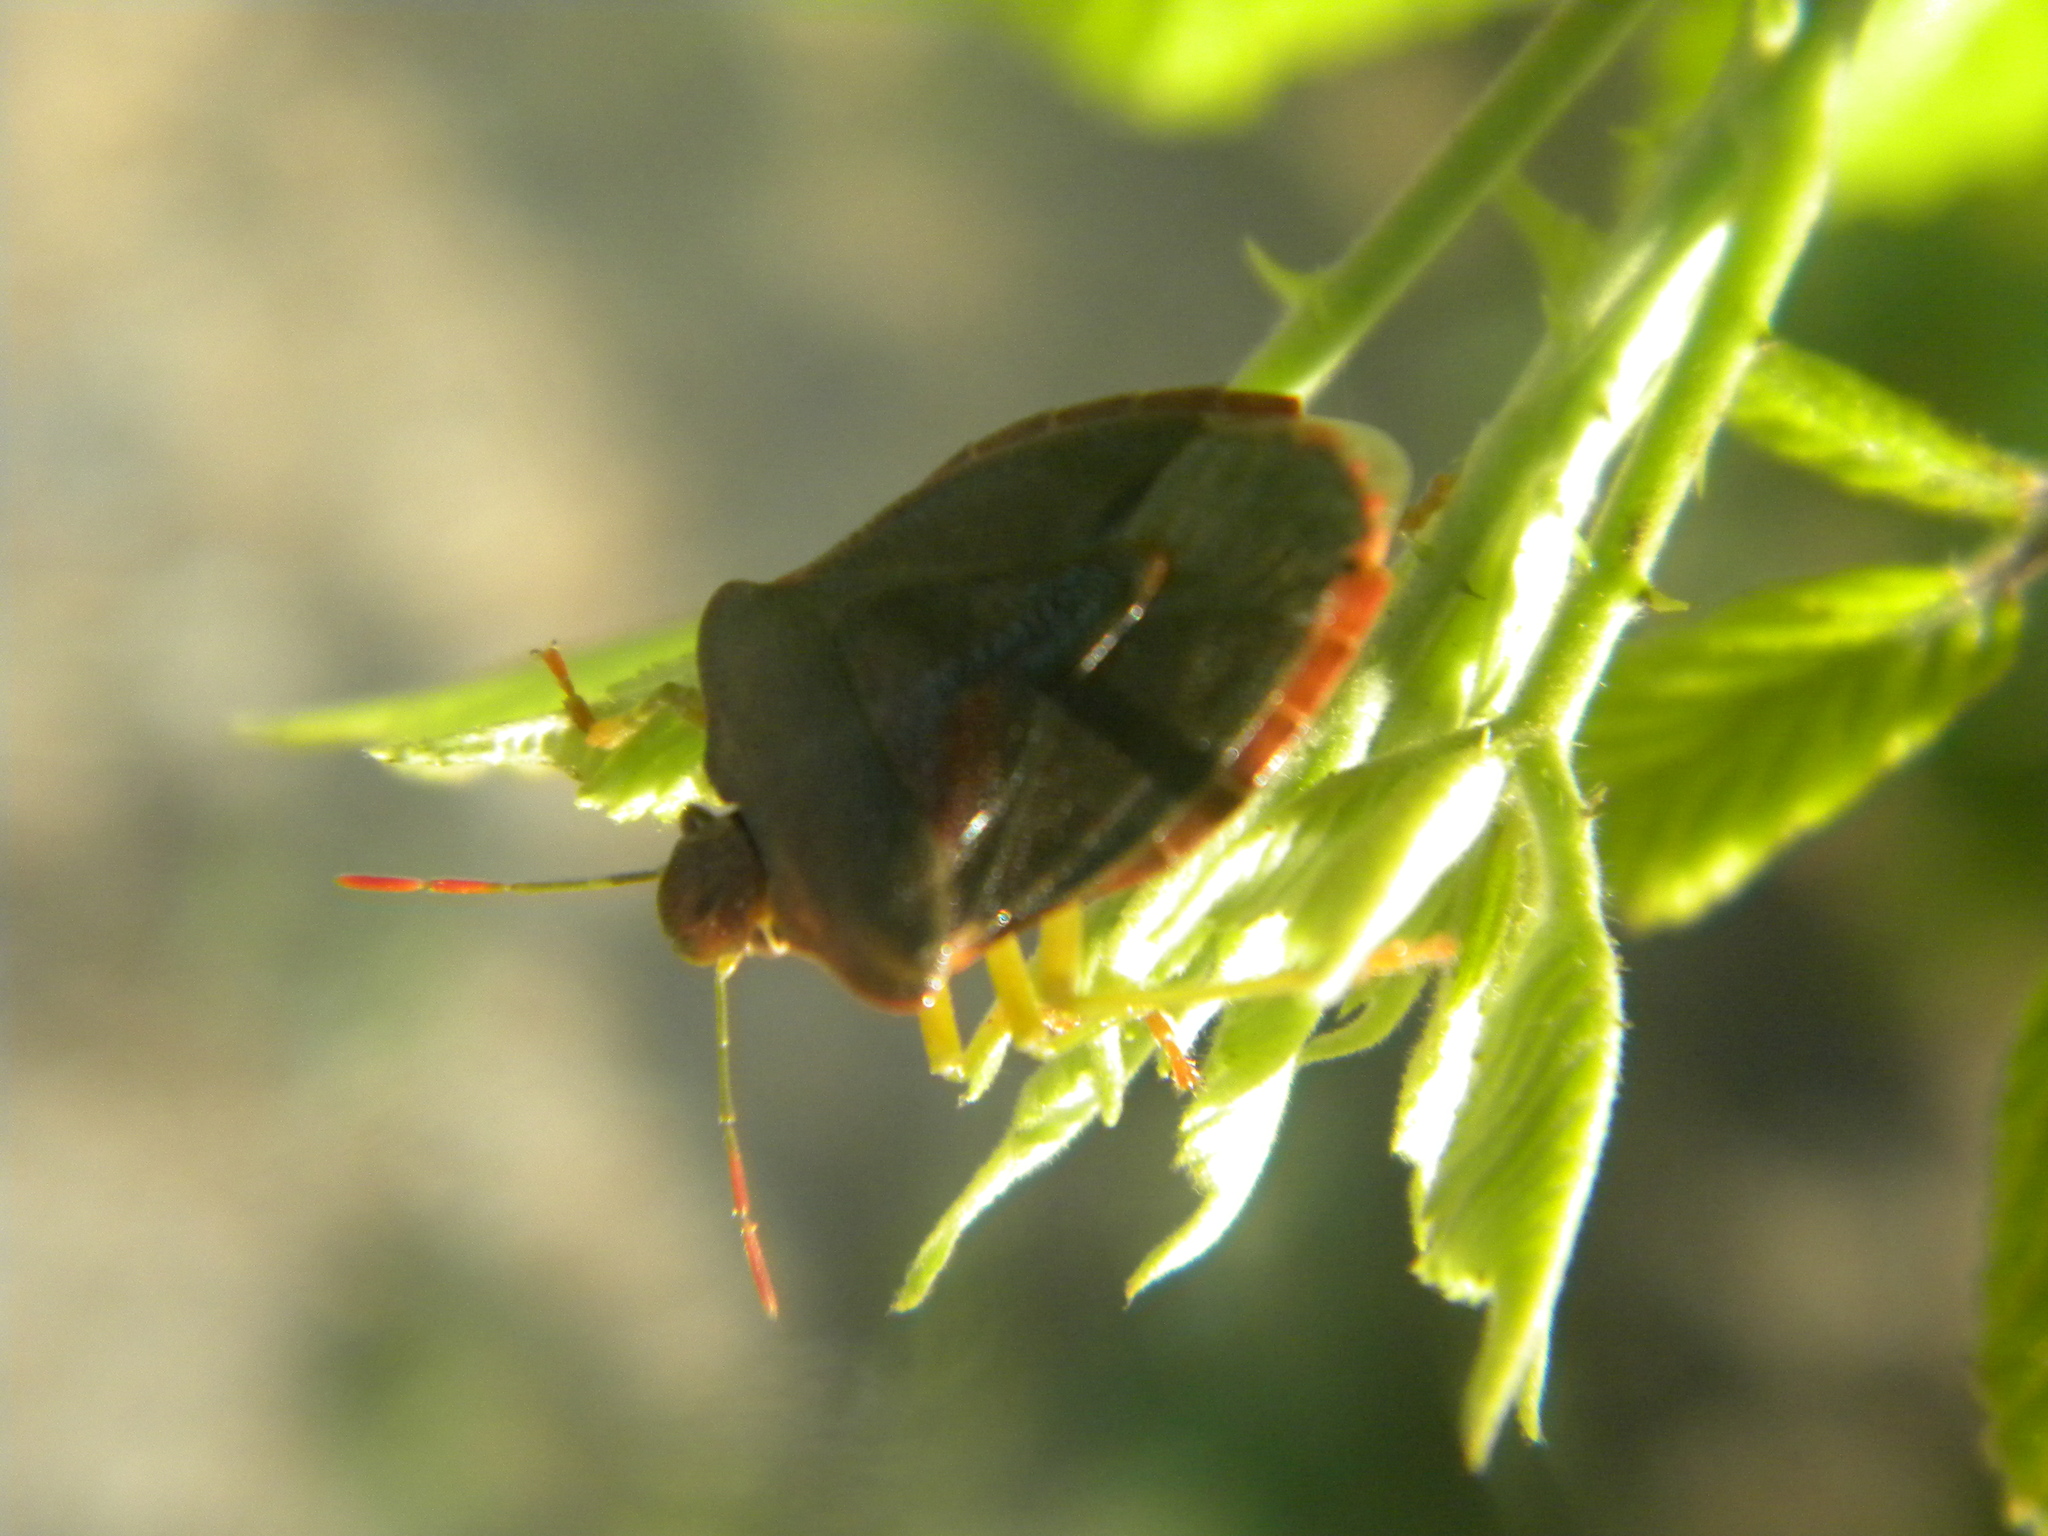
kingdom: Animalia
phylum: Arthropoda
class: Insecta
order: Hemiptera
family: Pentatomidae
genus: Palomena
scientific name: Palomena prasina
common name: Green shieldbug
